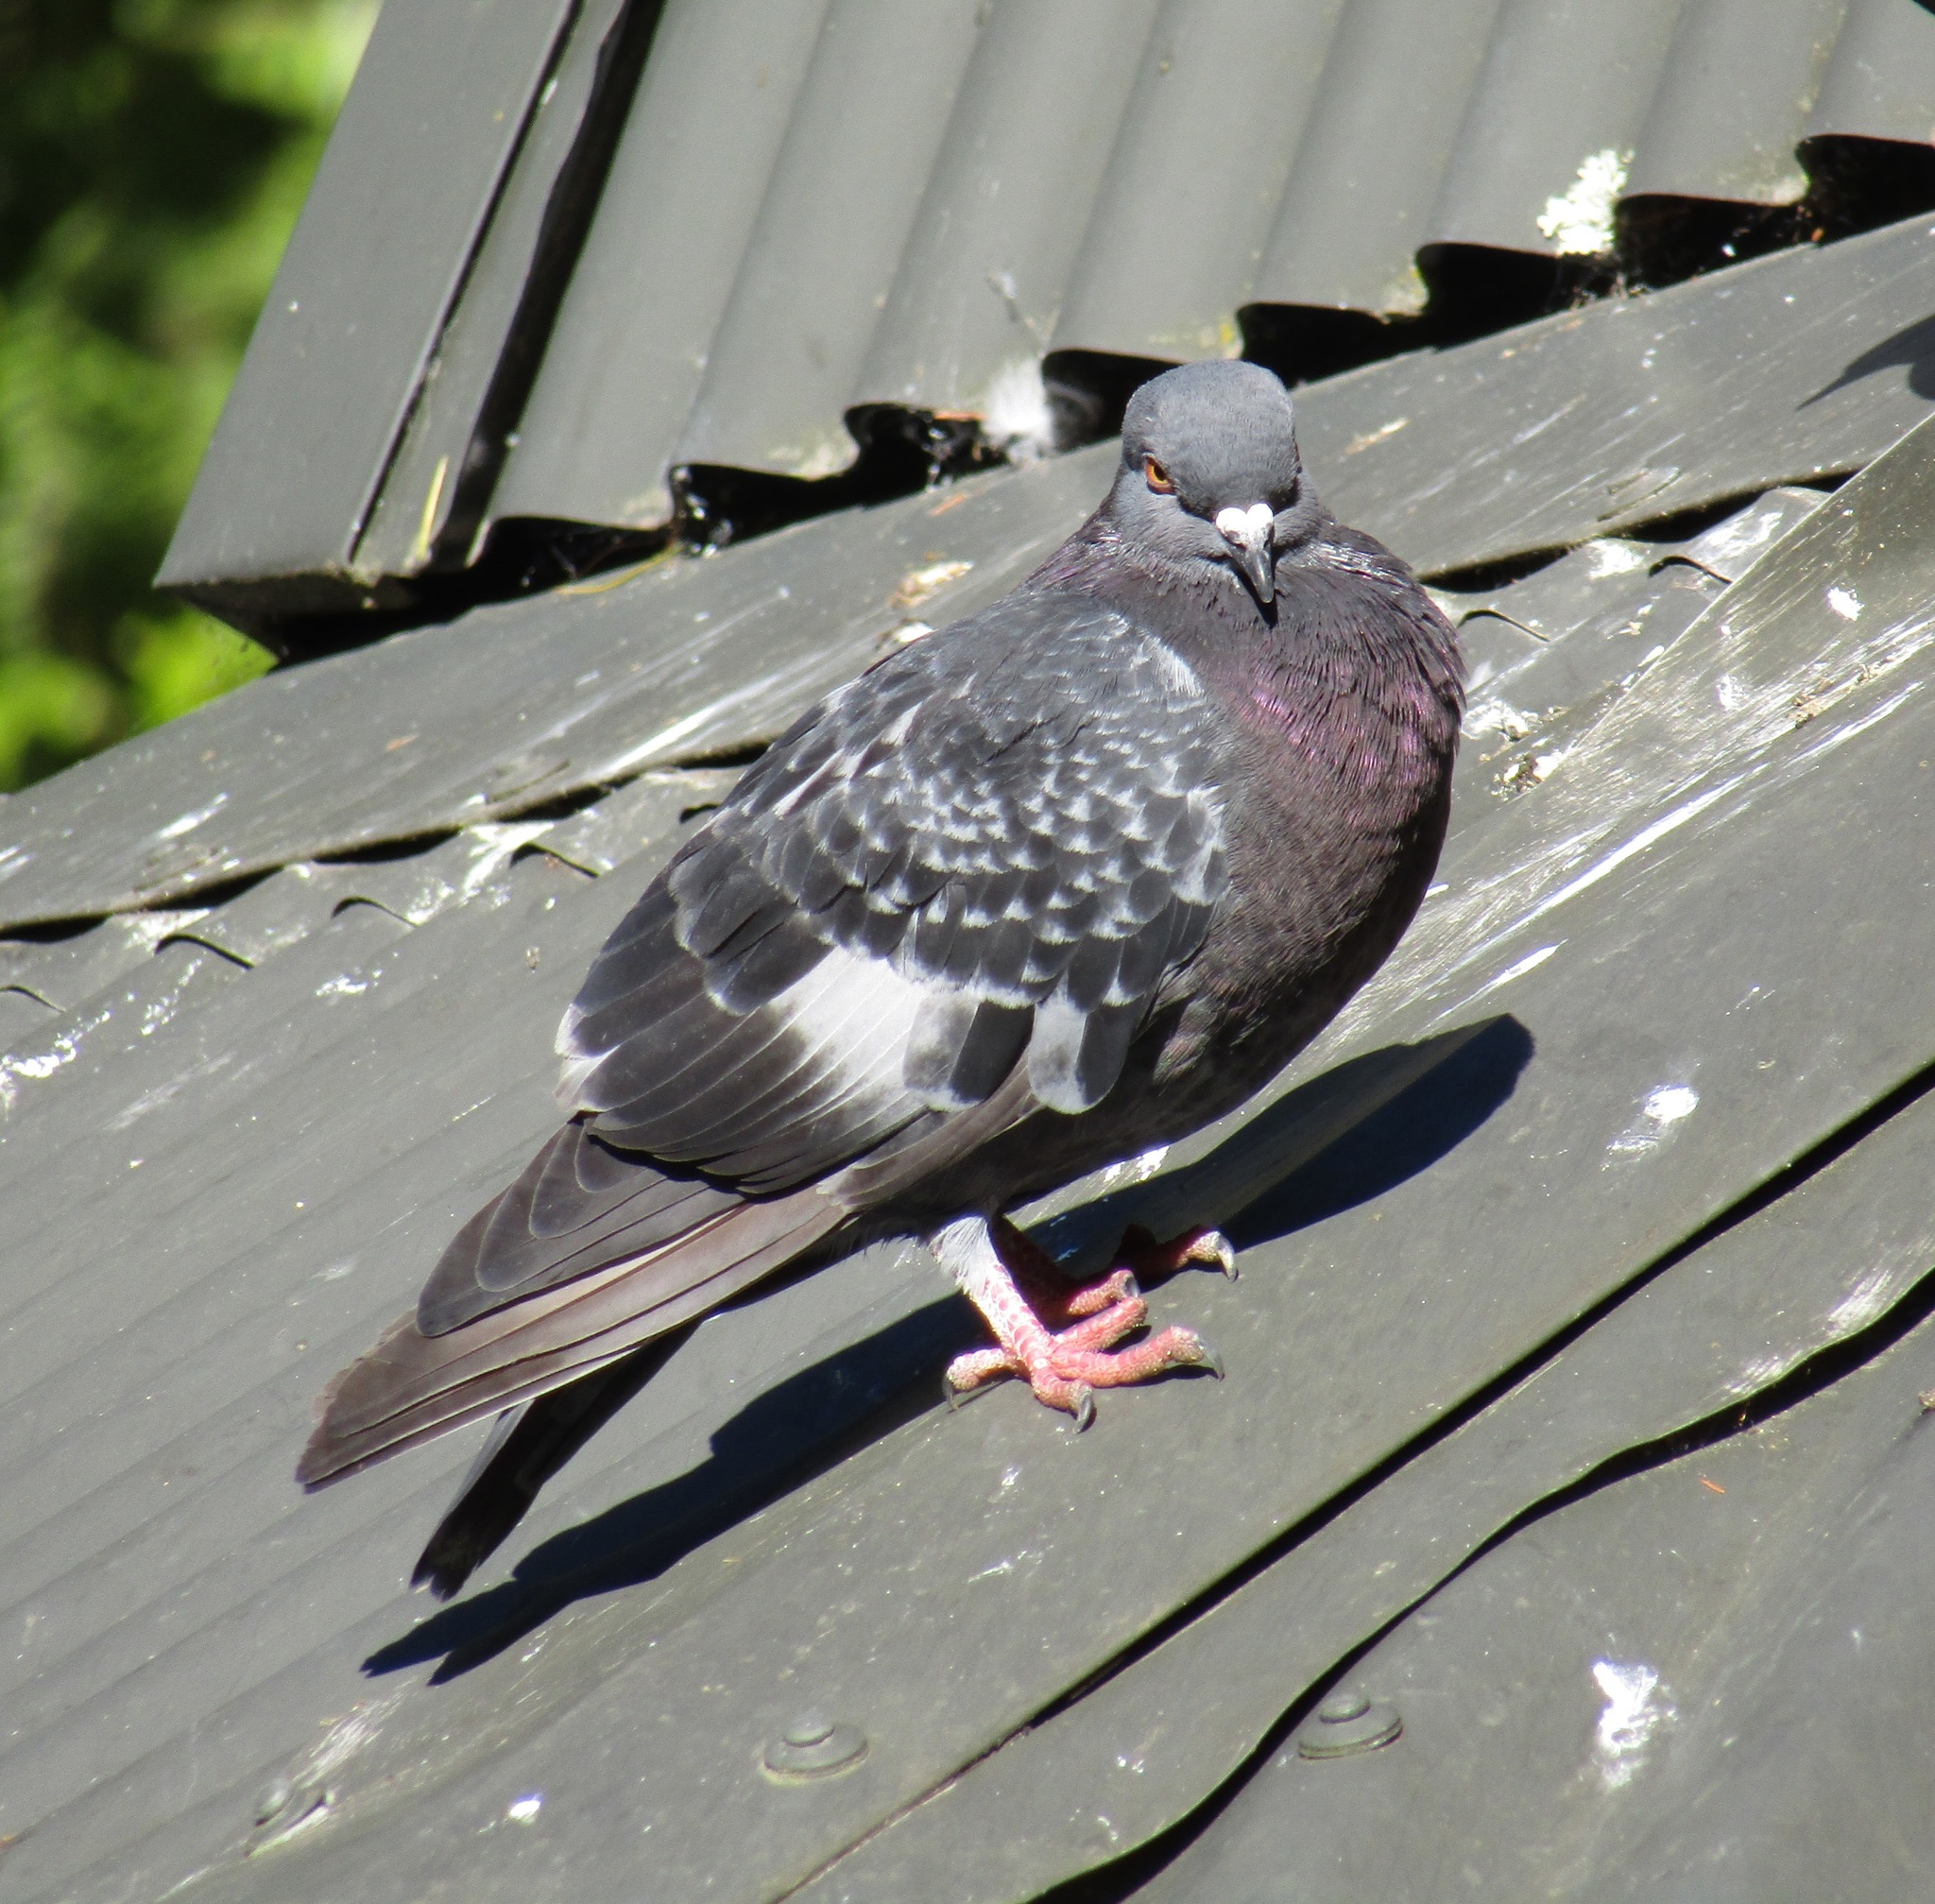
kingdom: Animalia
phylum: Chordata
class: Aves
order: Columbiformes
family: Columbidae
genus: Columba
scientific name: Columba livia
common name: Rock pigeon
